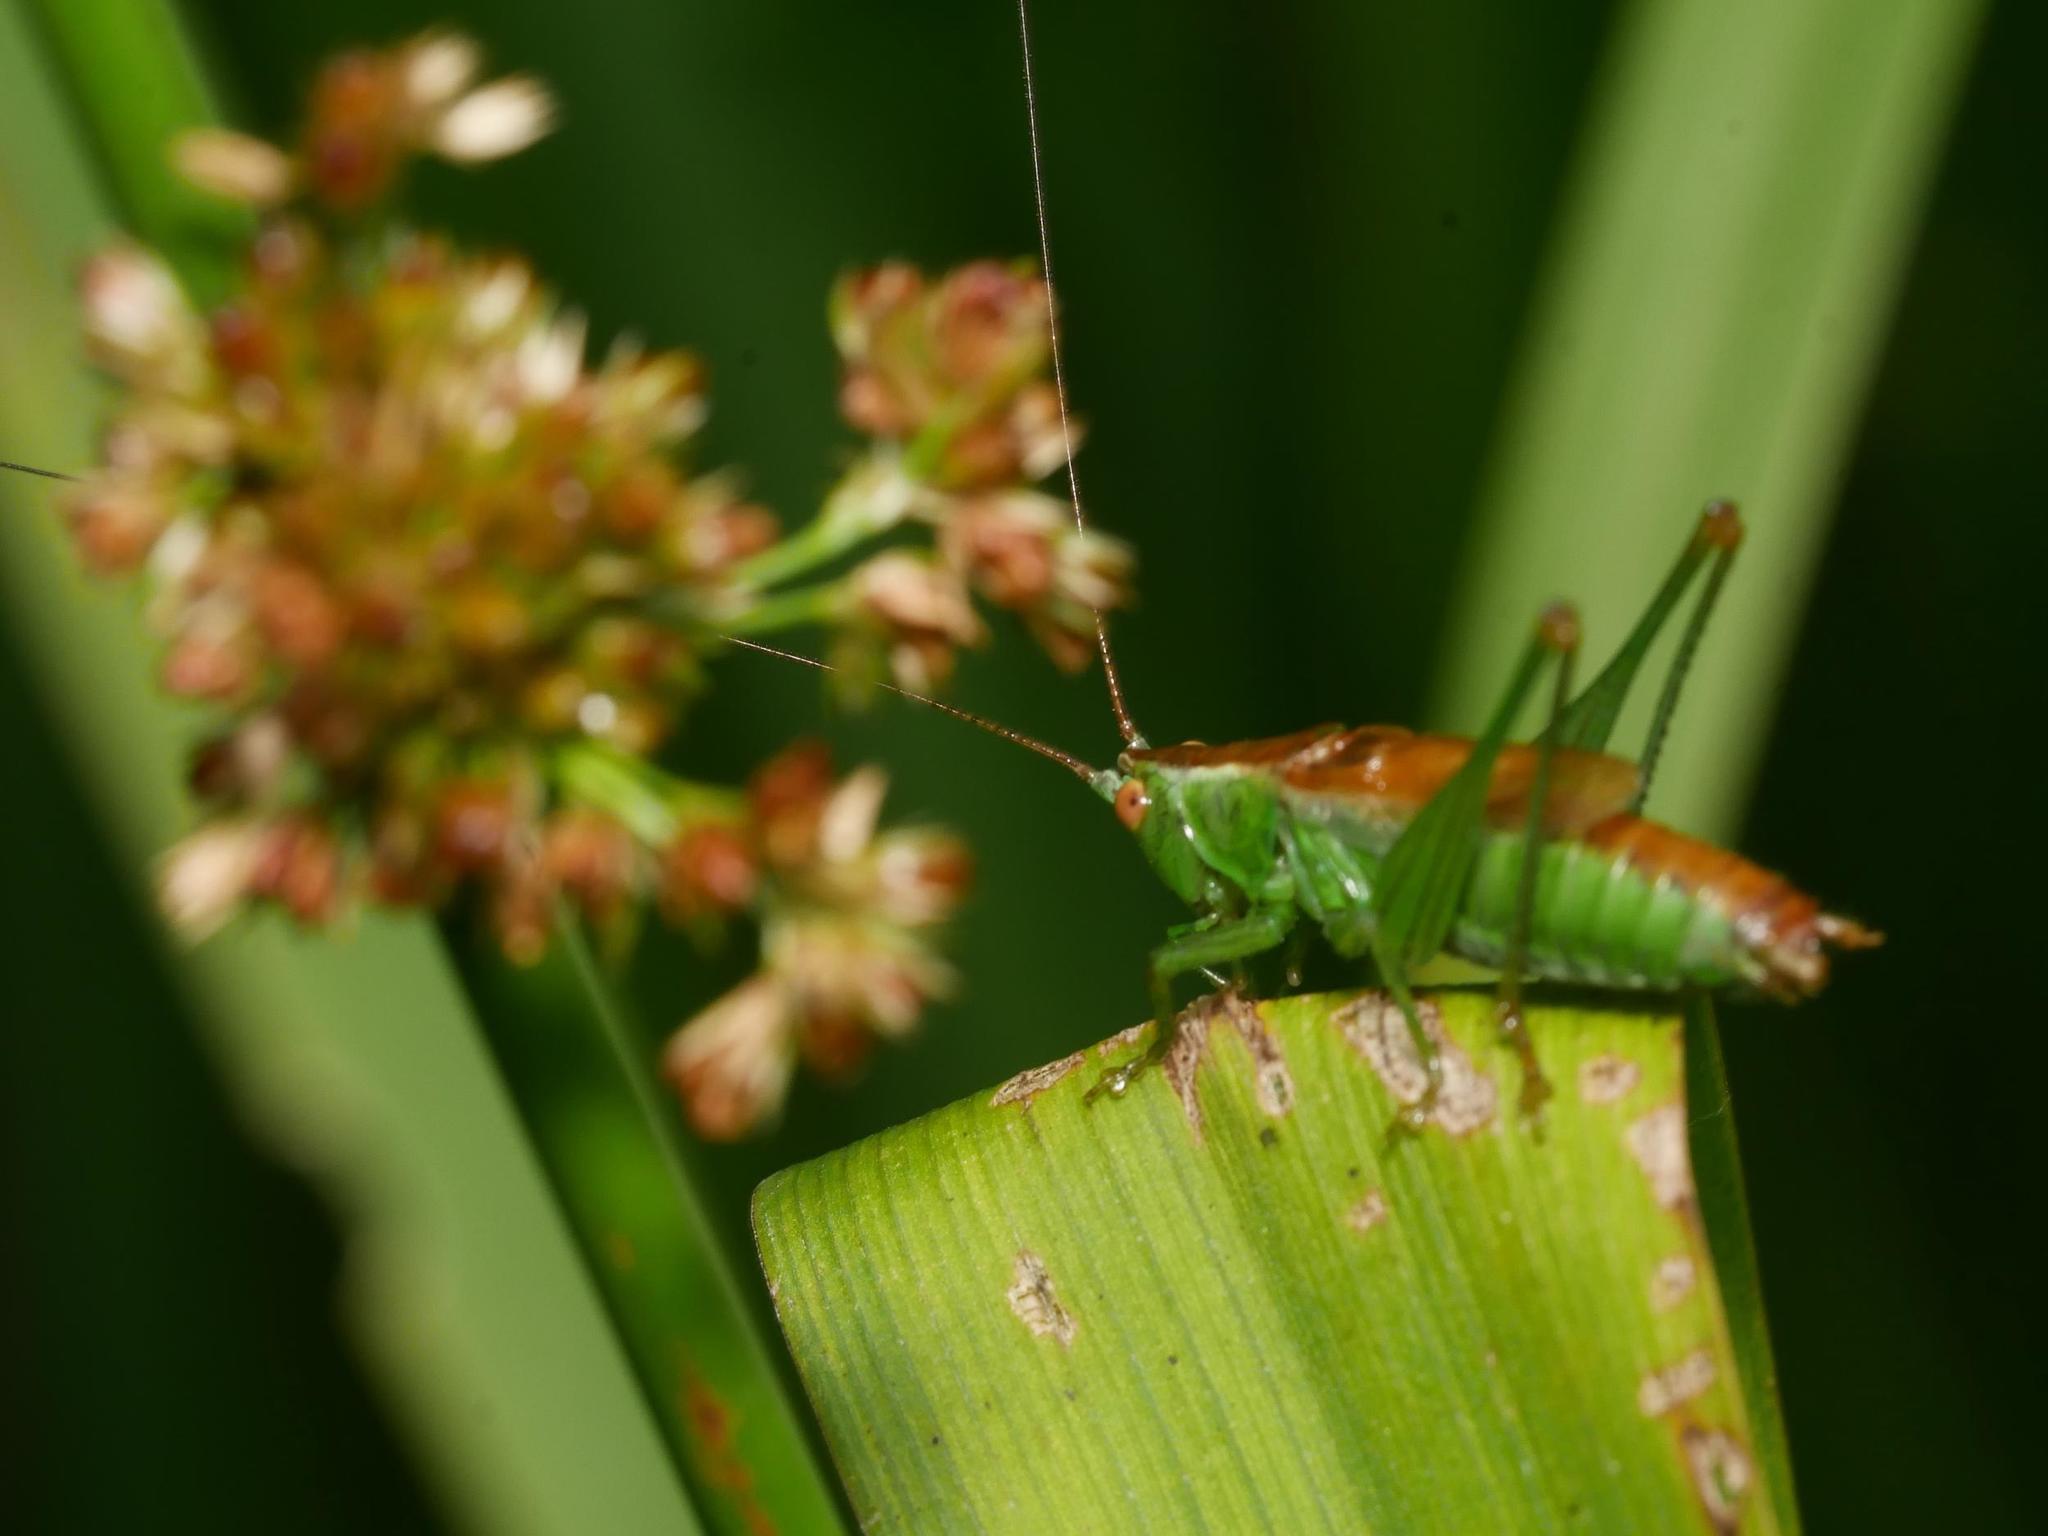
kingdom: Animalia
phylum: Arthropoda
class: Insecta
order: Orthoptera
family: Tettigoniidae
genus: Conocephalus
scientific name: Conocephalus dorsalis
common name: Short-winged conehead
